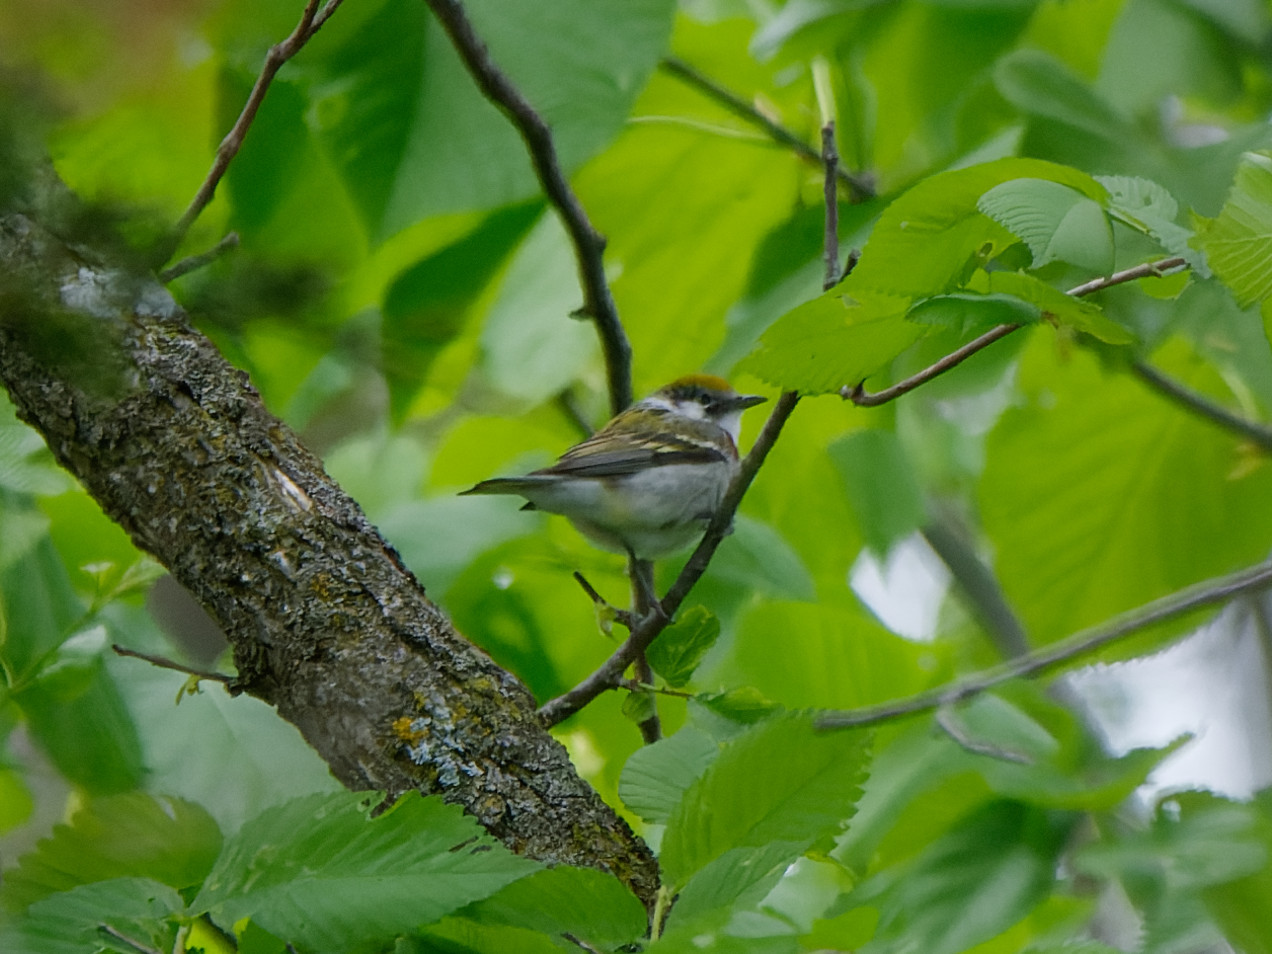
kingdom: Animalia
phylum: Chordata
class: Aves
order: Passeriformes
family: Parulidae
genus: Setophaga
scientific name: Setophaga pensylvanica
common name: Chestnut-sided warbler
